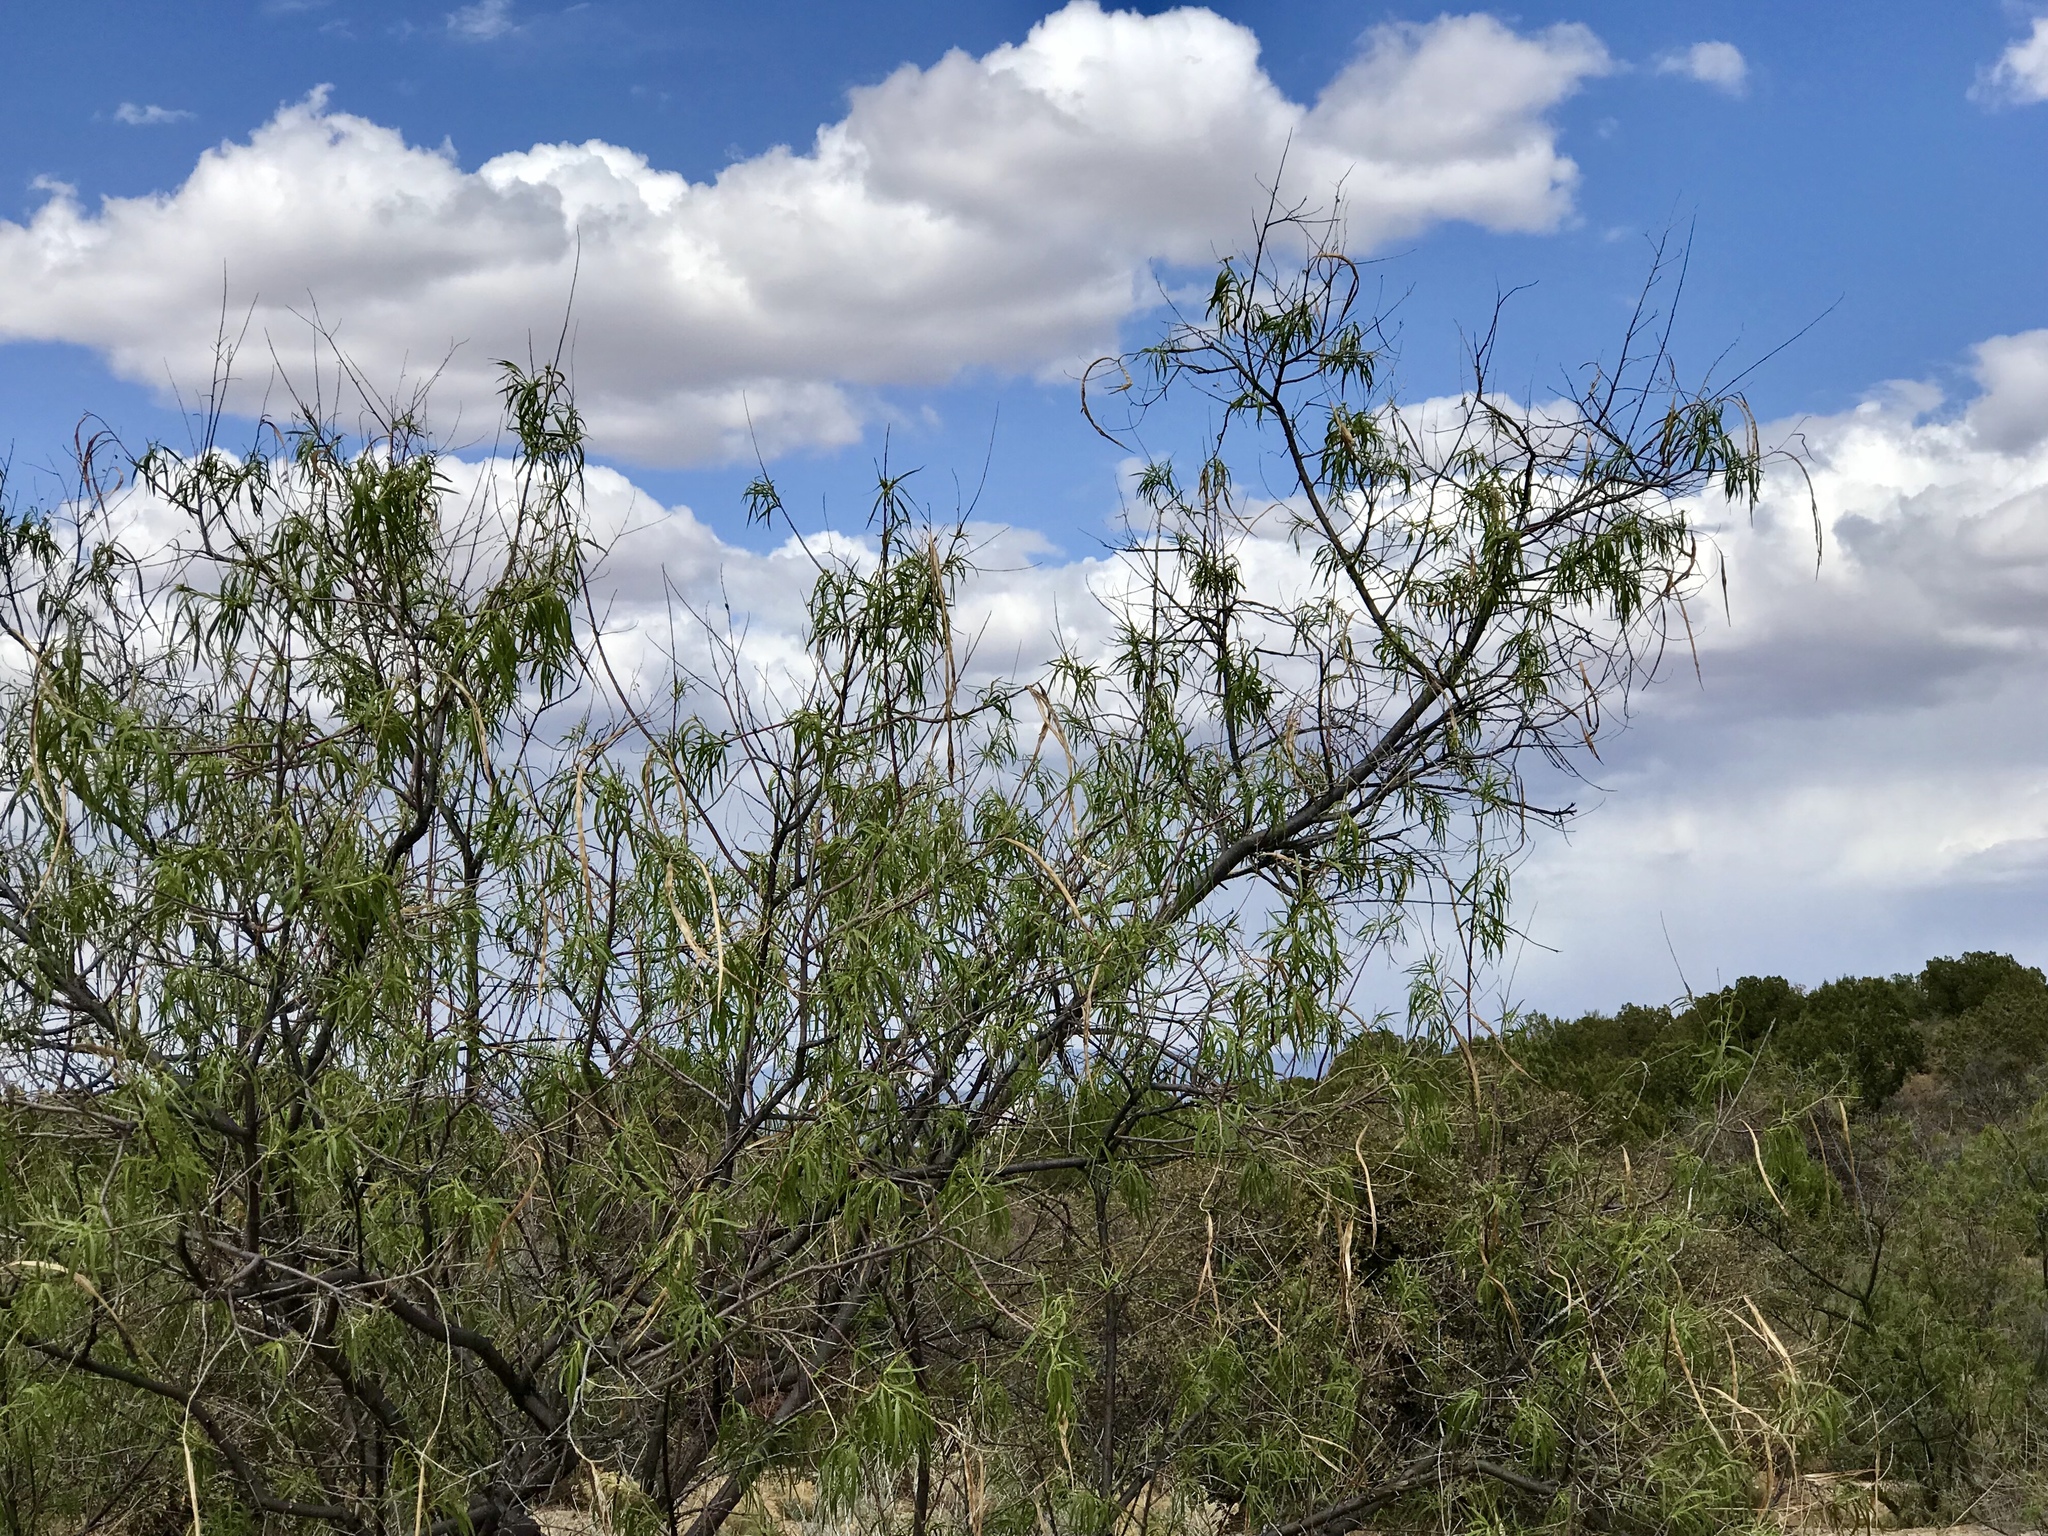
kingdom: Plantae
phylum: Tracheophyta
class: Magnoliopsida
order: Lamiales
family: Bignoniaceae
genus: Chilopsis
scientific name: Chilopsis linearis
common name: Desert-willow
